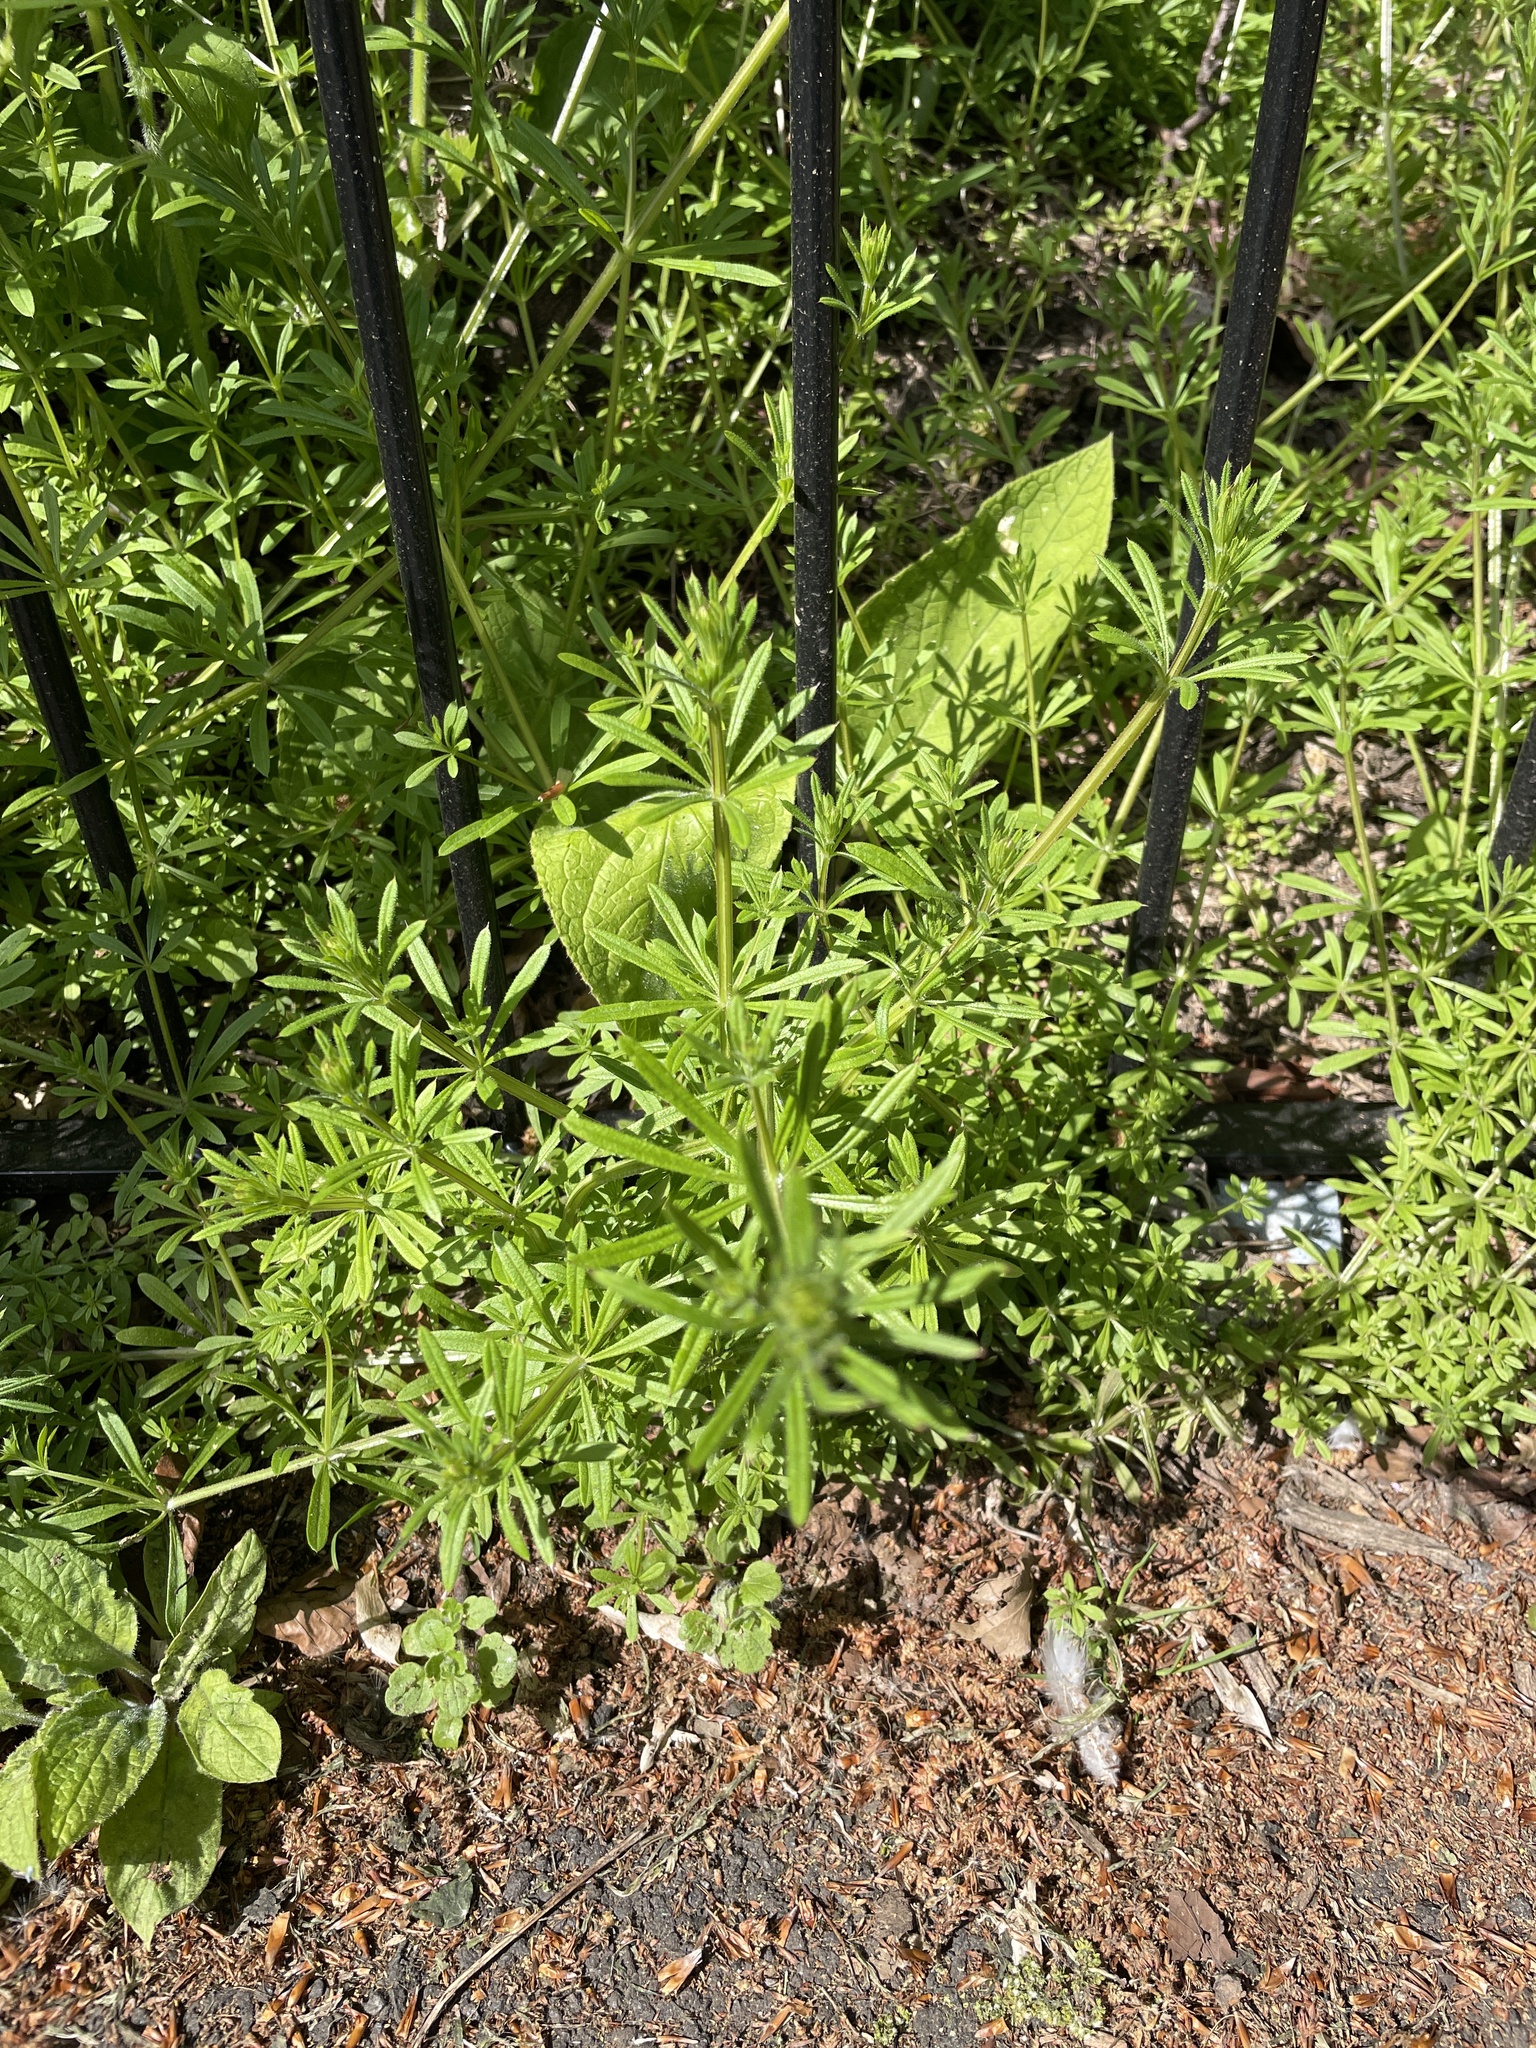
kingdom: Plantae
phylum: Tracheophyta
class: Magnoliopsida
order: Gentianales
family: Rubiaceae
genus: Galium
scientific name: Galium aparine
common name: Cleavers
